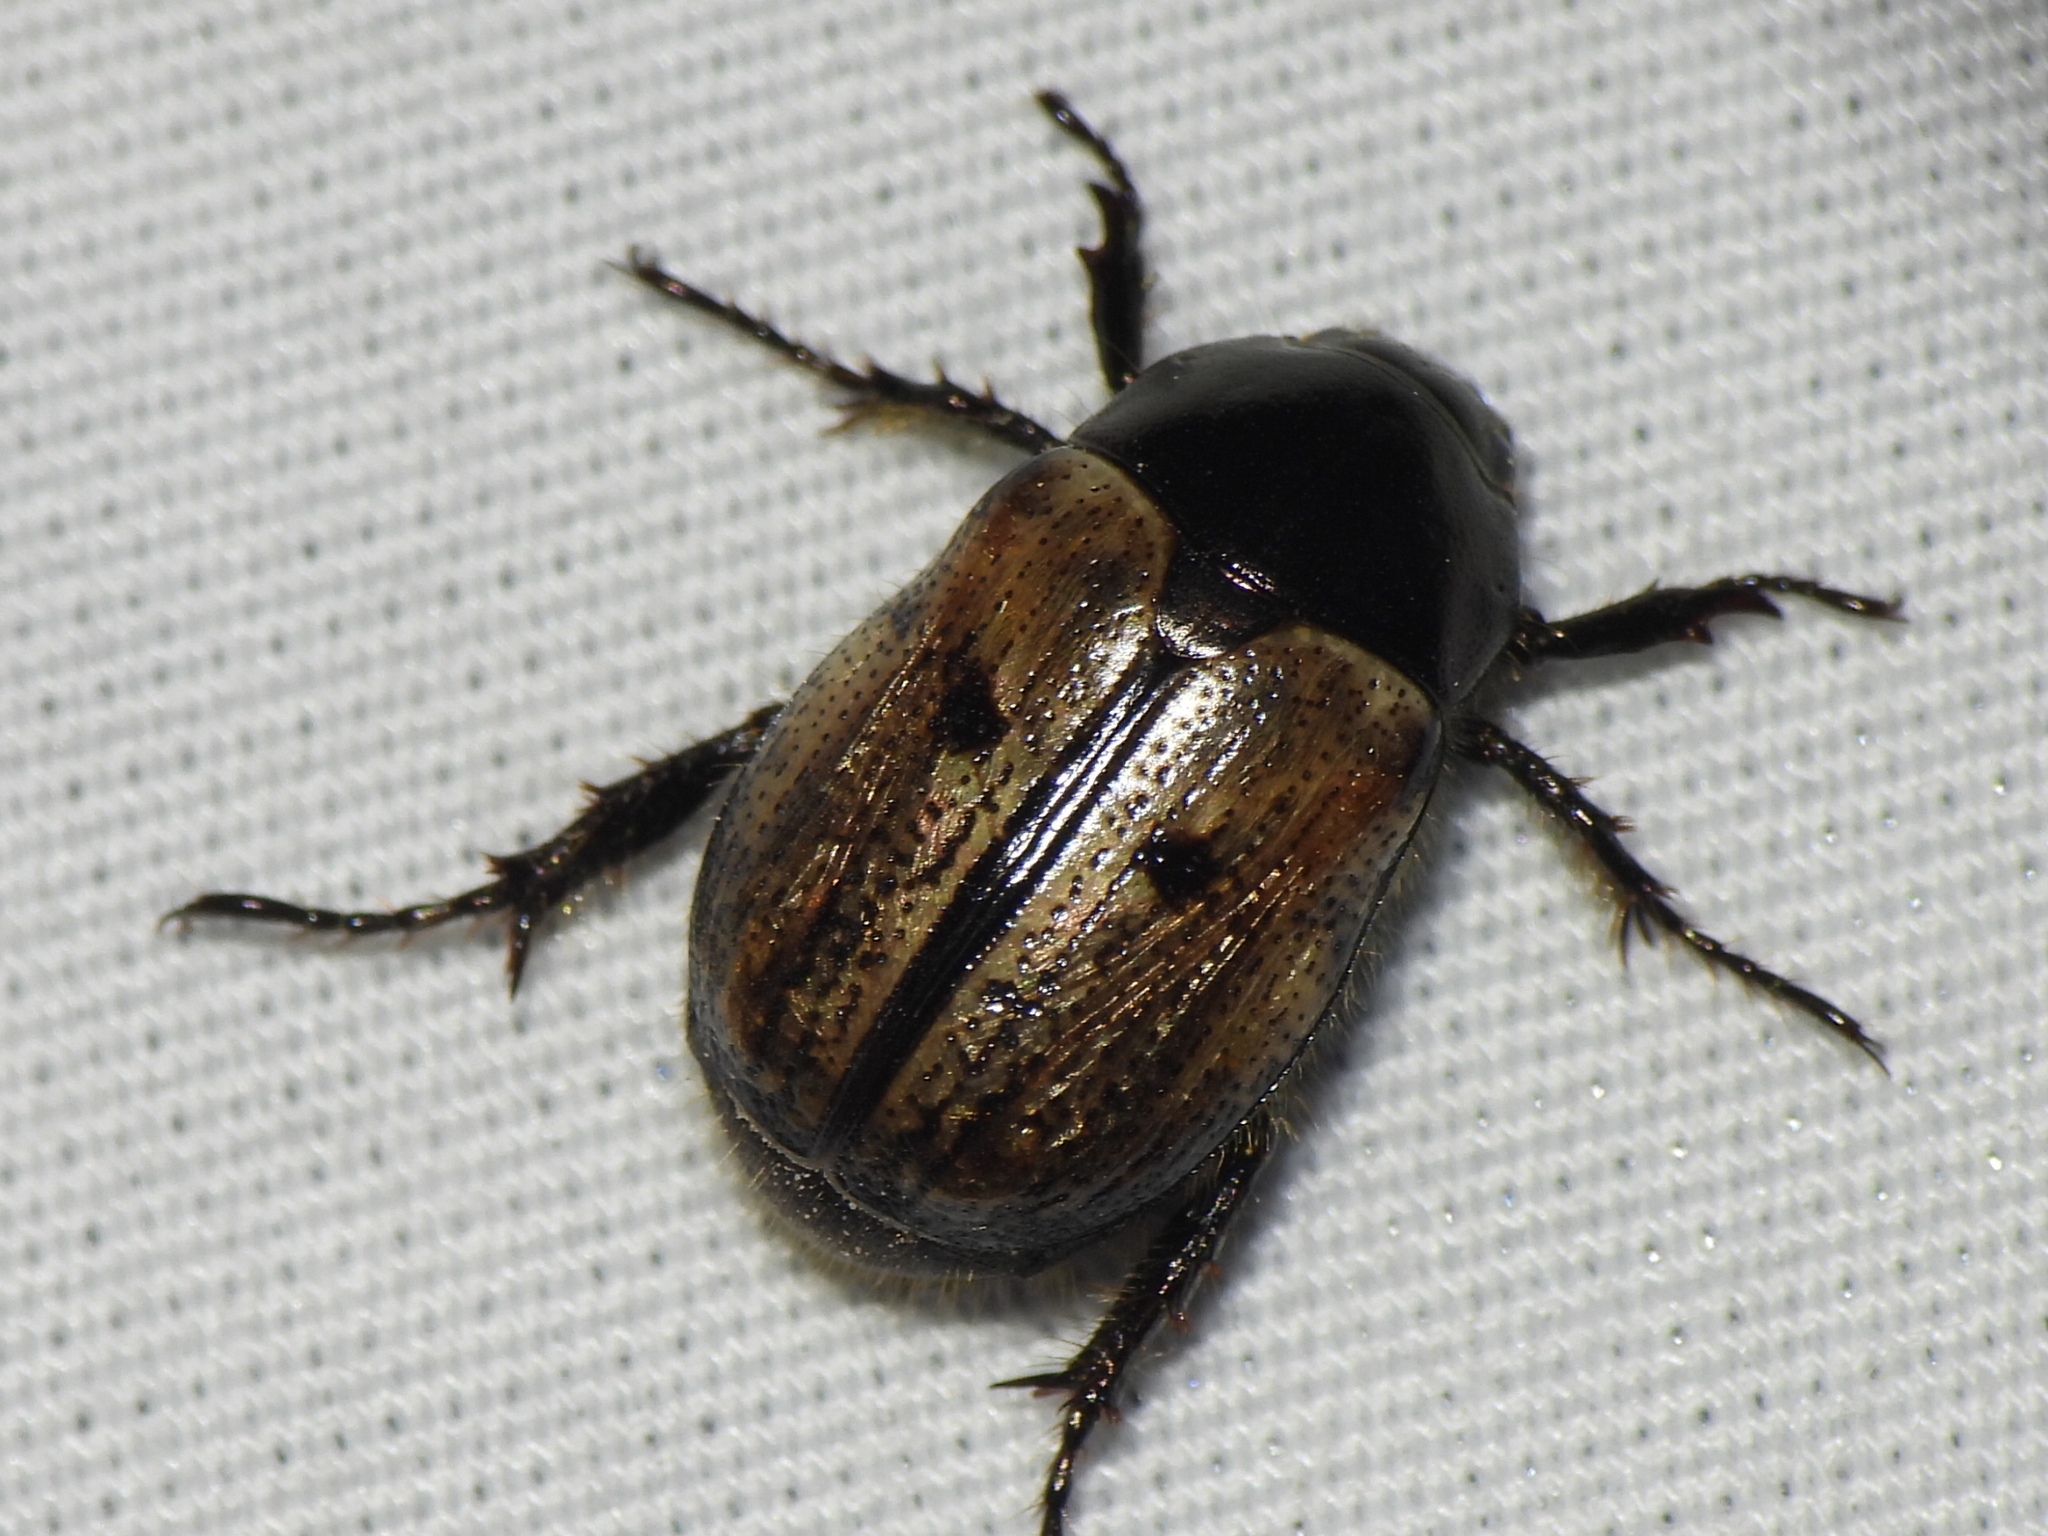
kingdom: Animalia
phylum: Arthropoda
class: Insecta
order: Coleoptera
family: Scarabaeidae
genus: Paranomala
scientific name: Paranomala binotata
